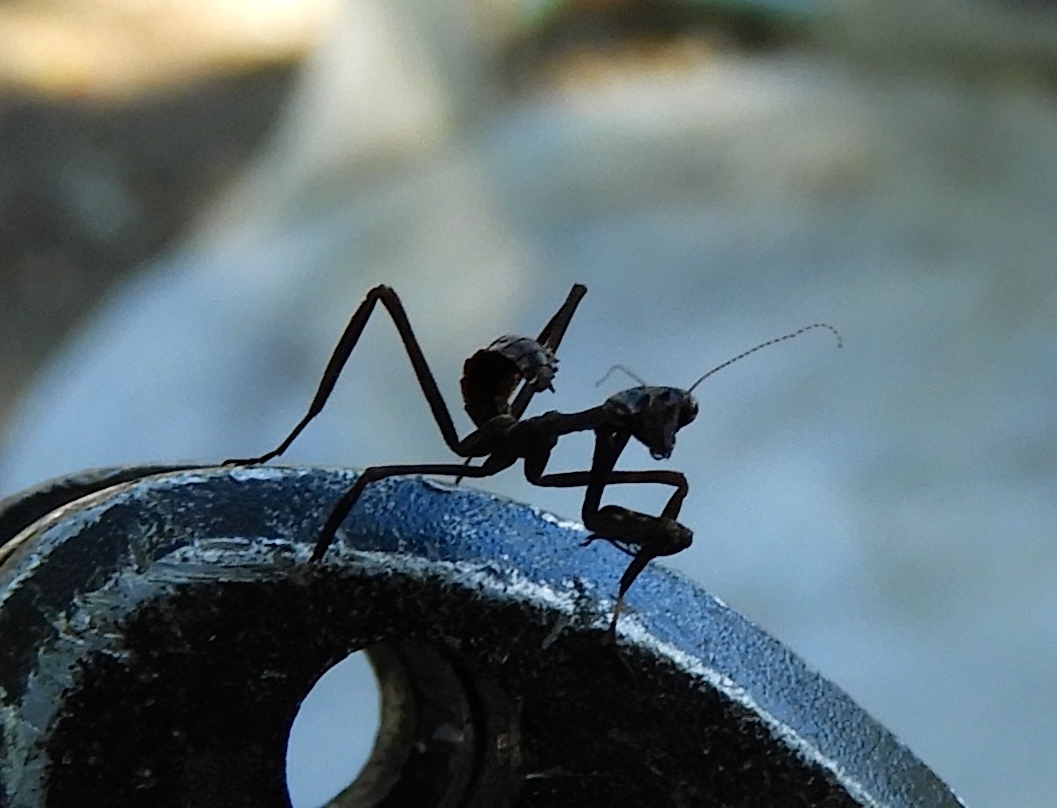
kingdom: Animalia
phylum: Arthropoda
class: Insecta
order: Mantodea
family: Mantidae
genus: Pseudovates
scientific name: Pseudovates chlorophaea
